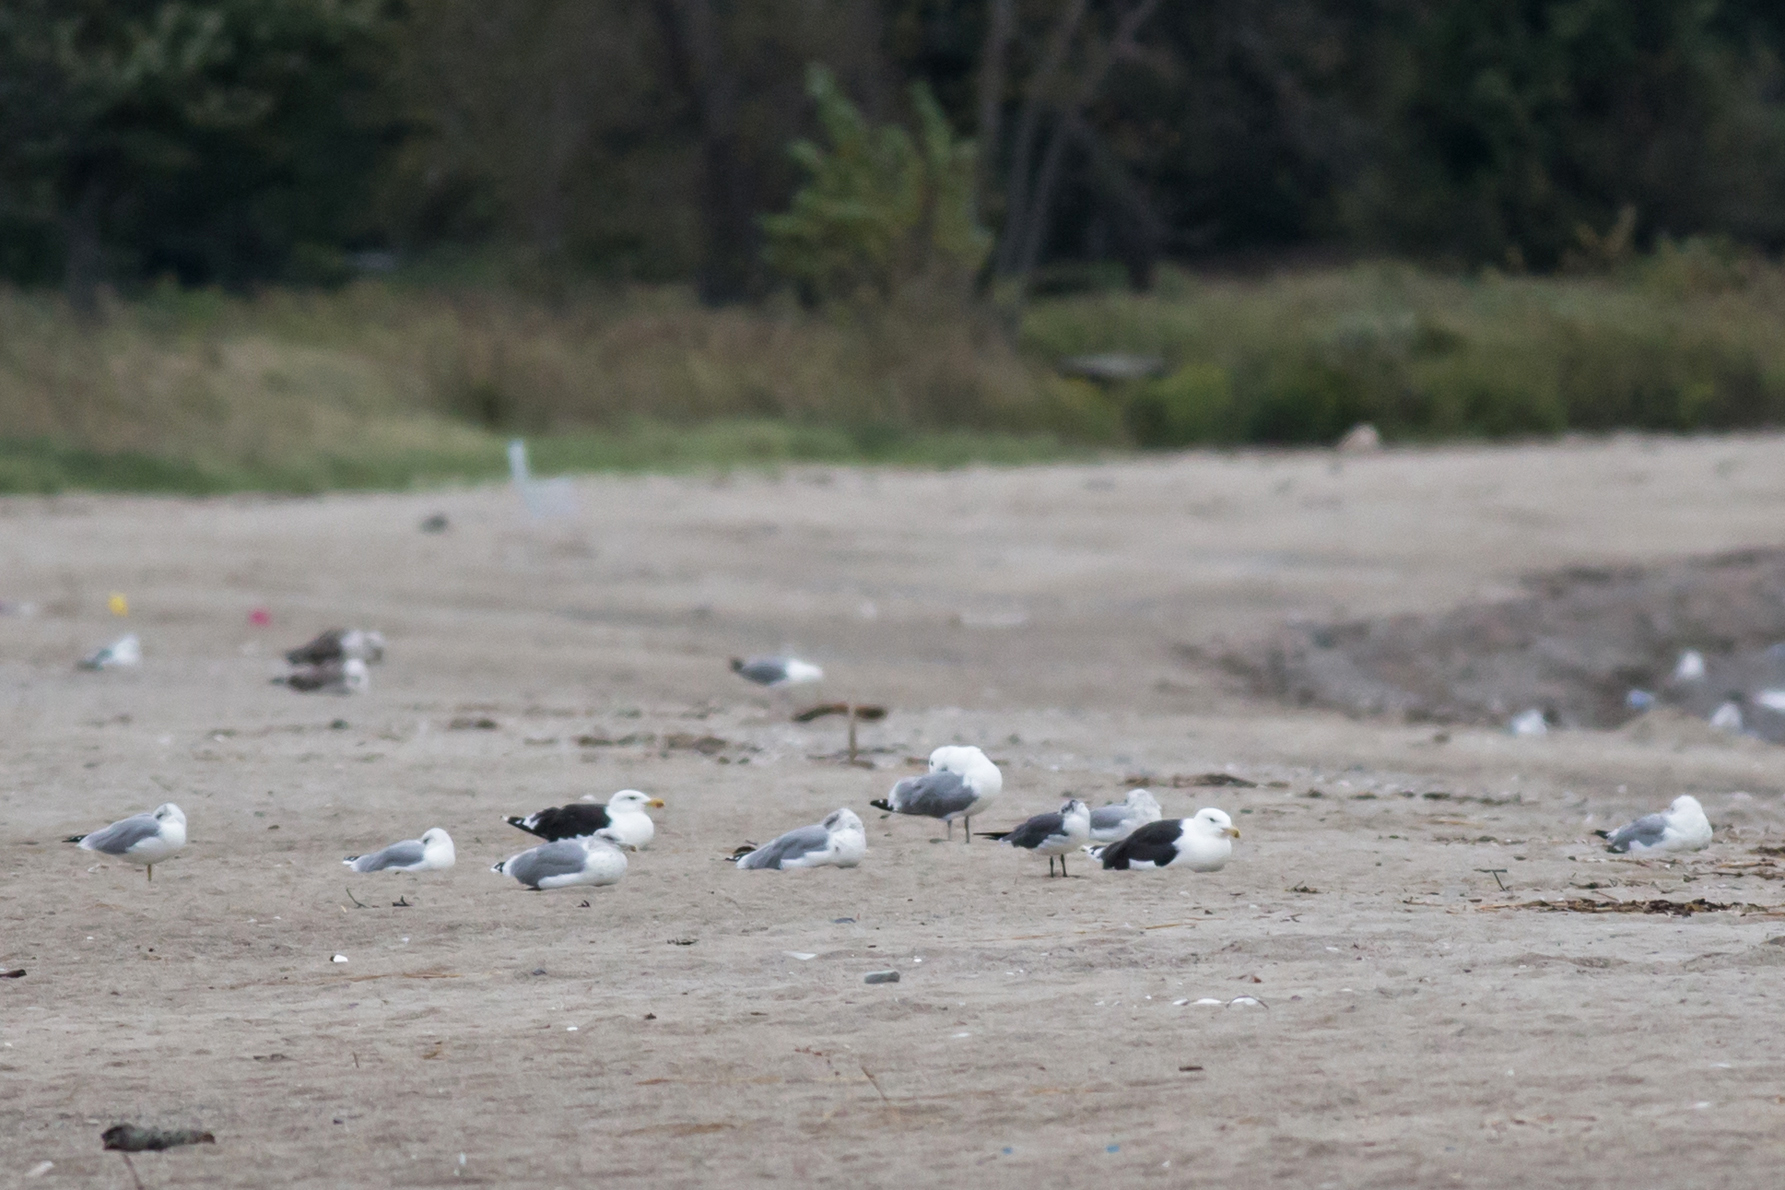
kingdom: Animalia
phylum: Chordata
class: Aves
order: Charadriiformes
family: Laridae
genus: Larus
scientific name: Larus marinus
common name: Great black-backed gull
